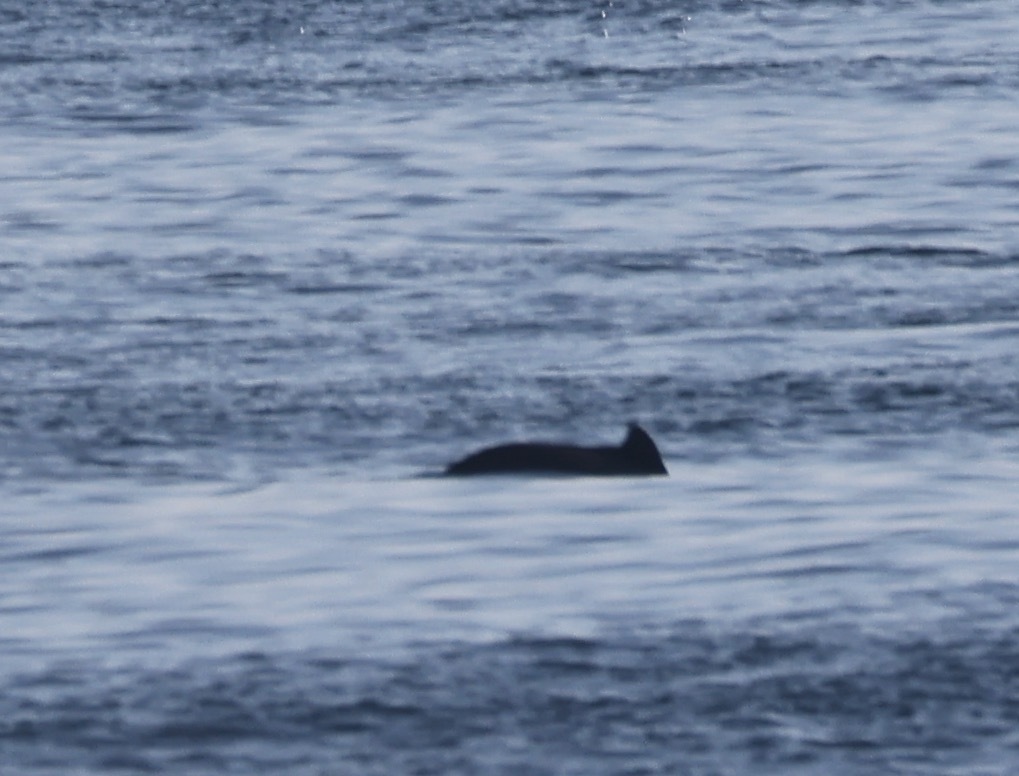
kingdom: Animalia
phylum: Chordata
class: Mammalia
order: Cetacea
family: Phocoenidae
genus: Phocoena
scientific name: Phocoena phocoena
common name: Harbor porpoise
